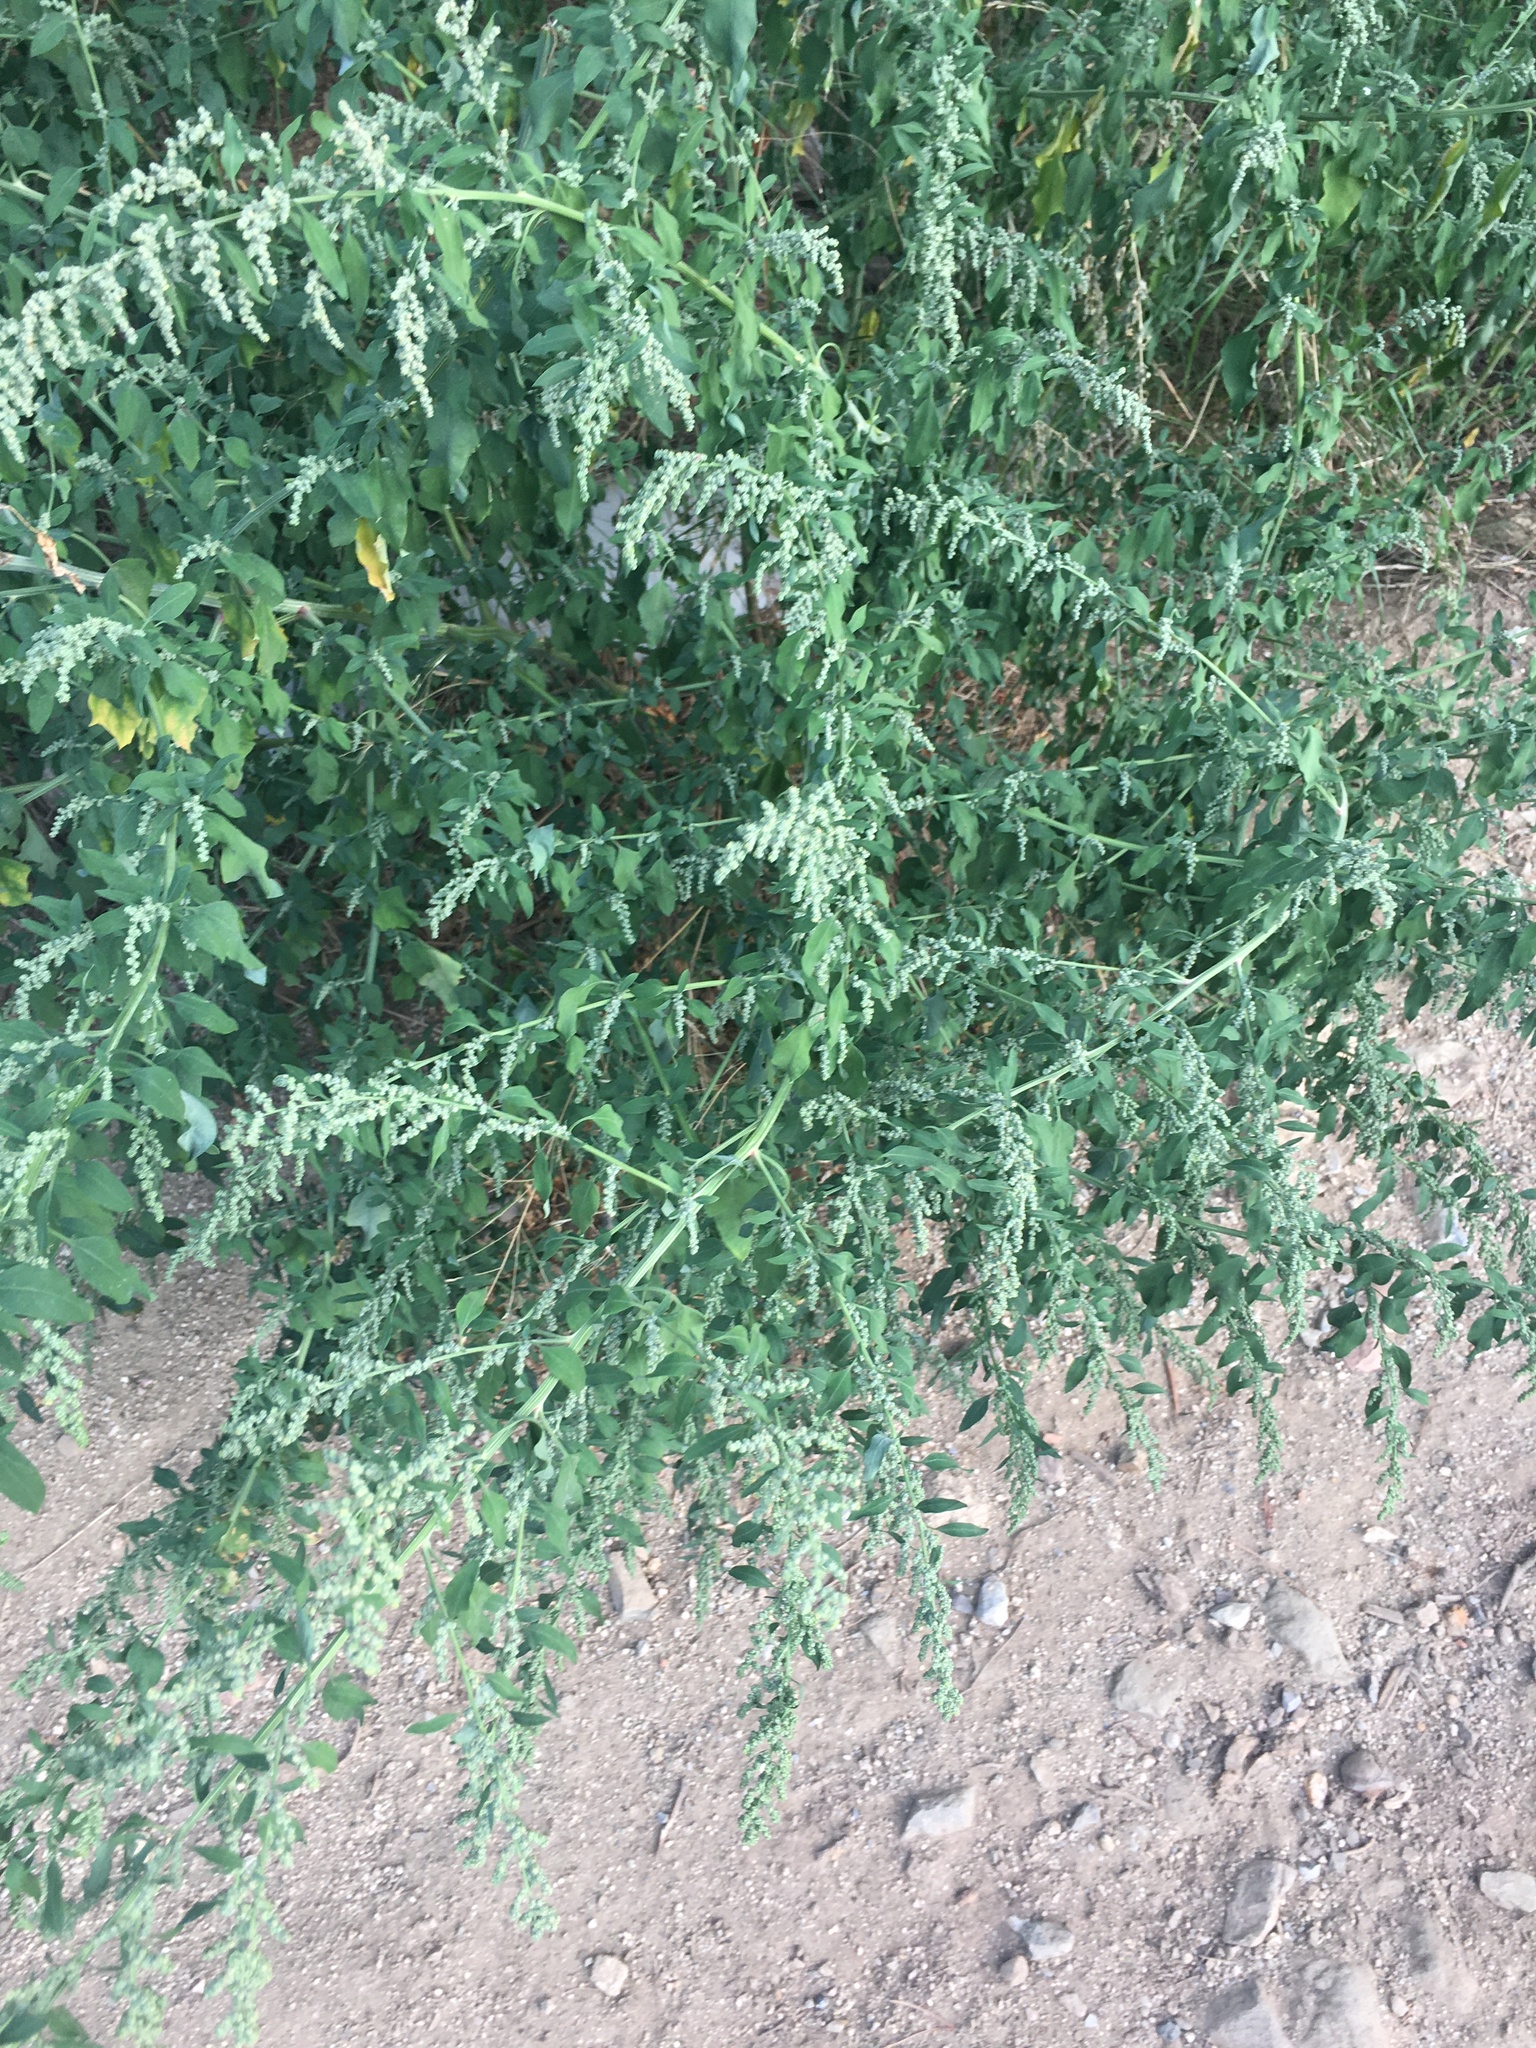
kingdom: Plantae
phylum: Tracheophyta
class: Magnoliopsida
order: Caryophyllales
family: Amaranthaceae
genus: Chenopodium
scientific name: Chenopodium album
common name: Fat-hen
